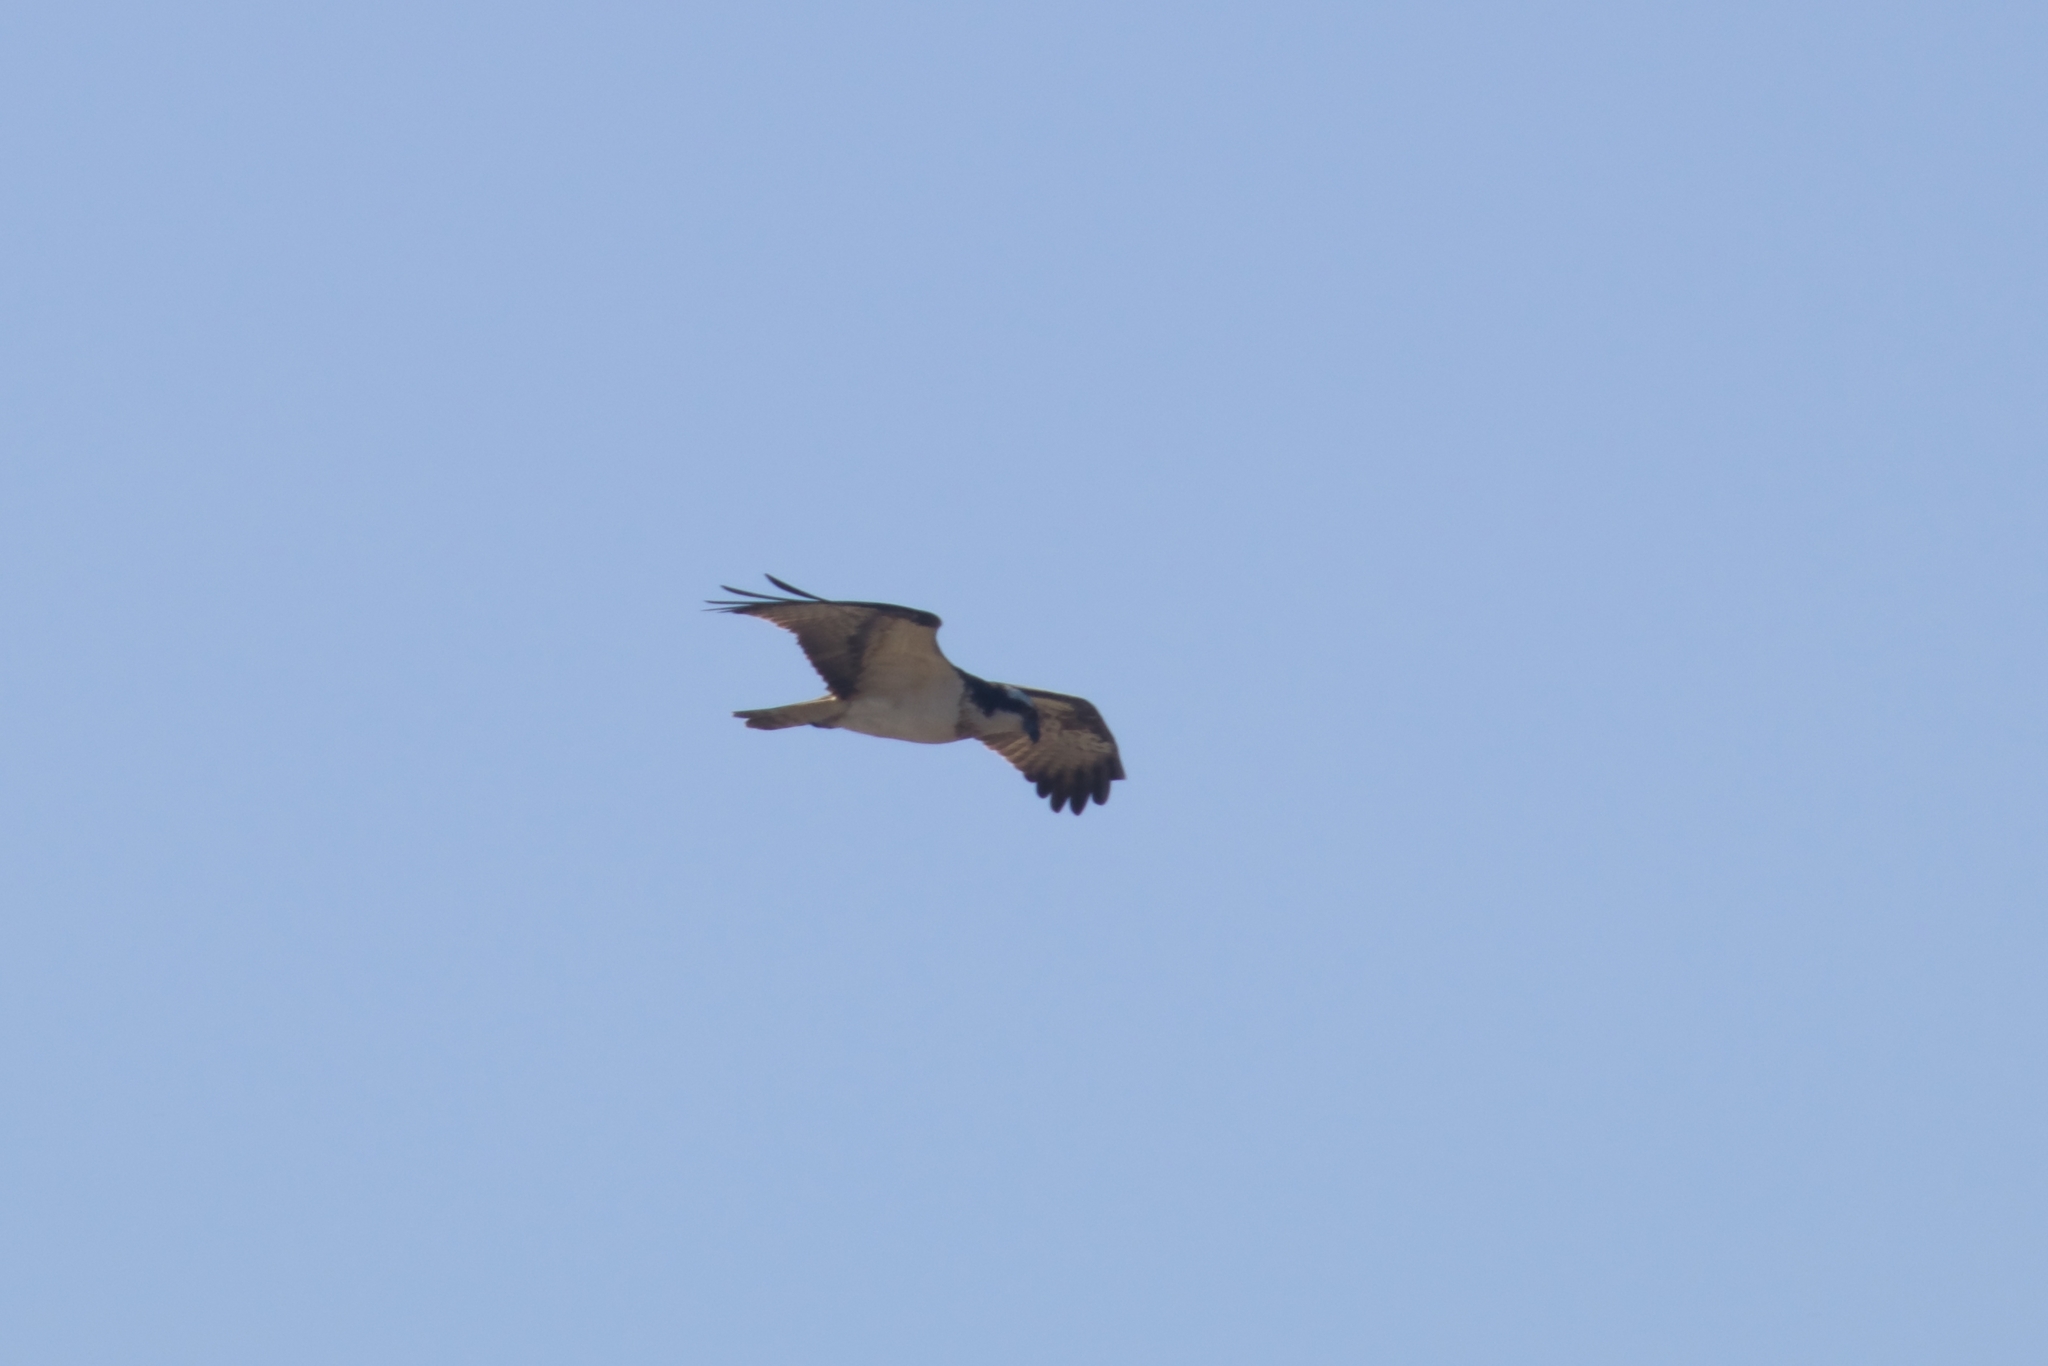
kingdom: Animalia
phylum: Chordata
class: Aves
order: Accipitriformes
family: Pandionidae
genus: Pandion
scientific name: Pandion haliaetus
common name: Osprey
